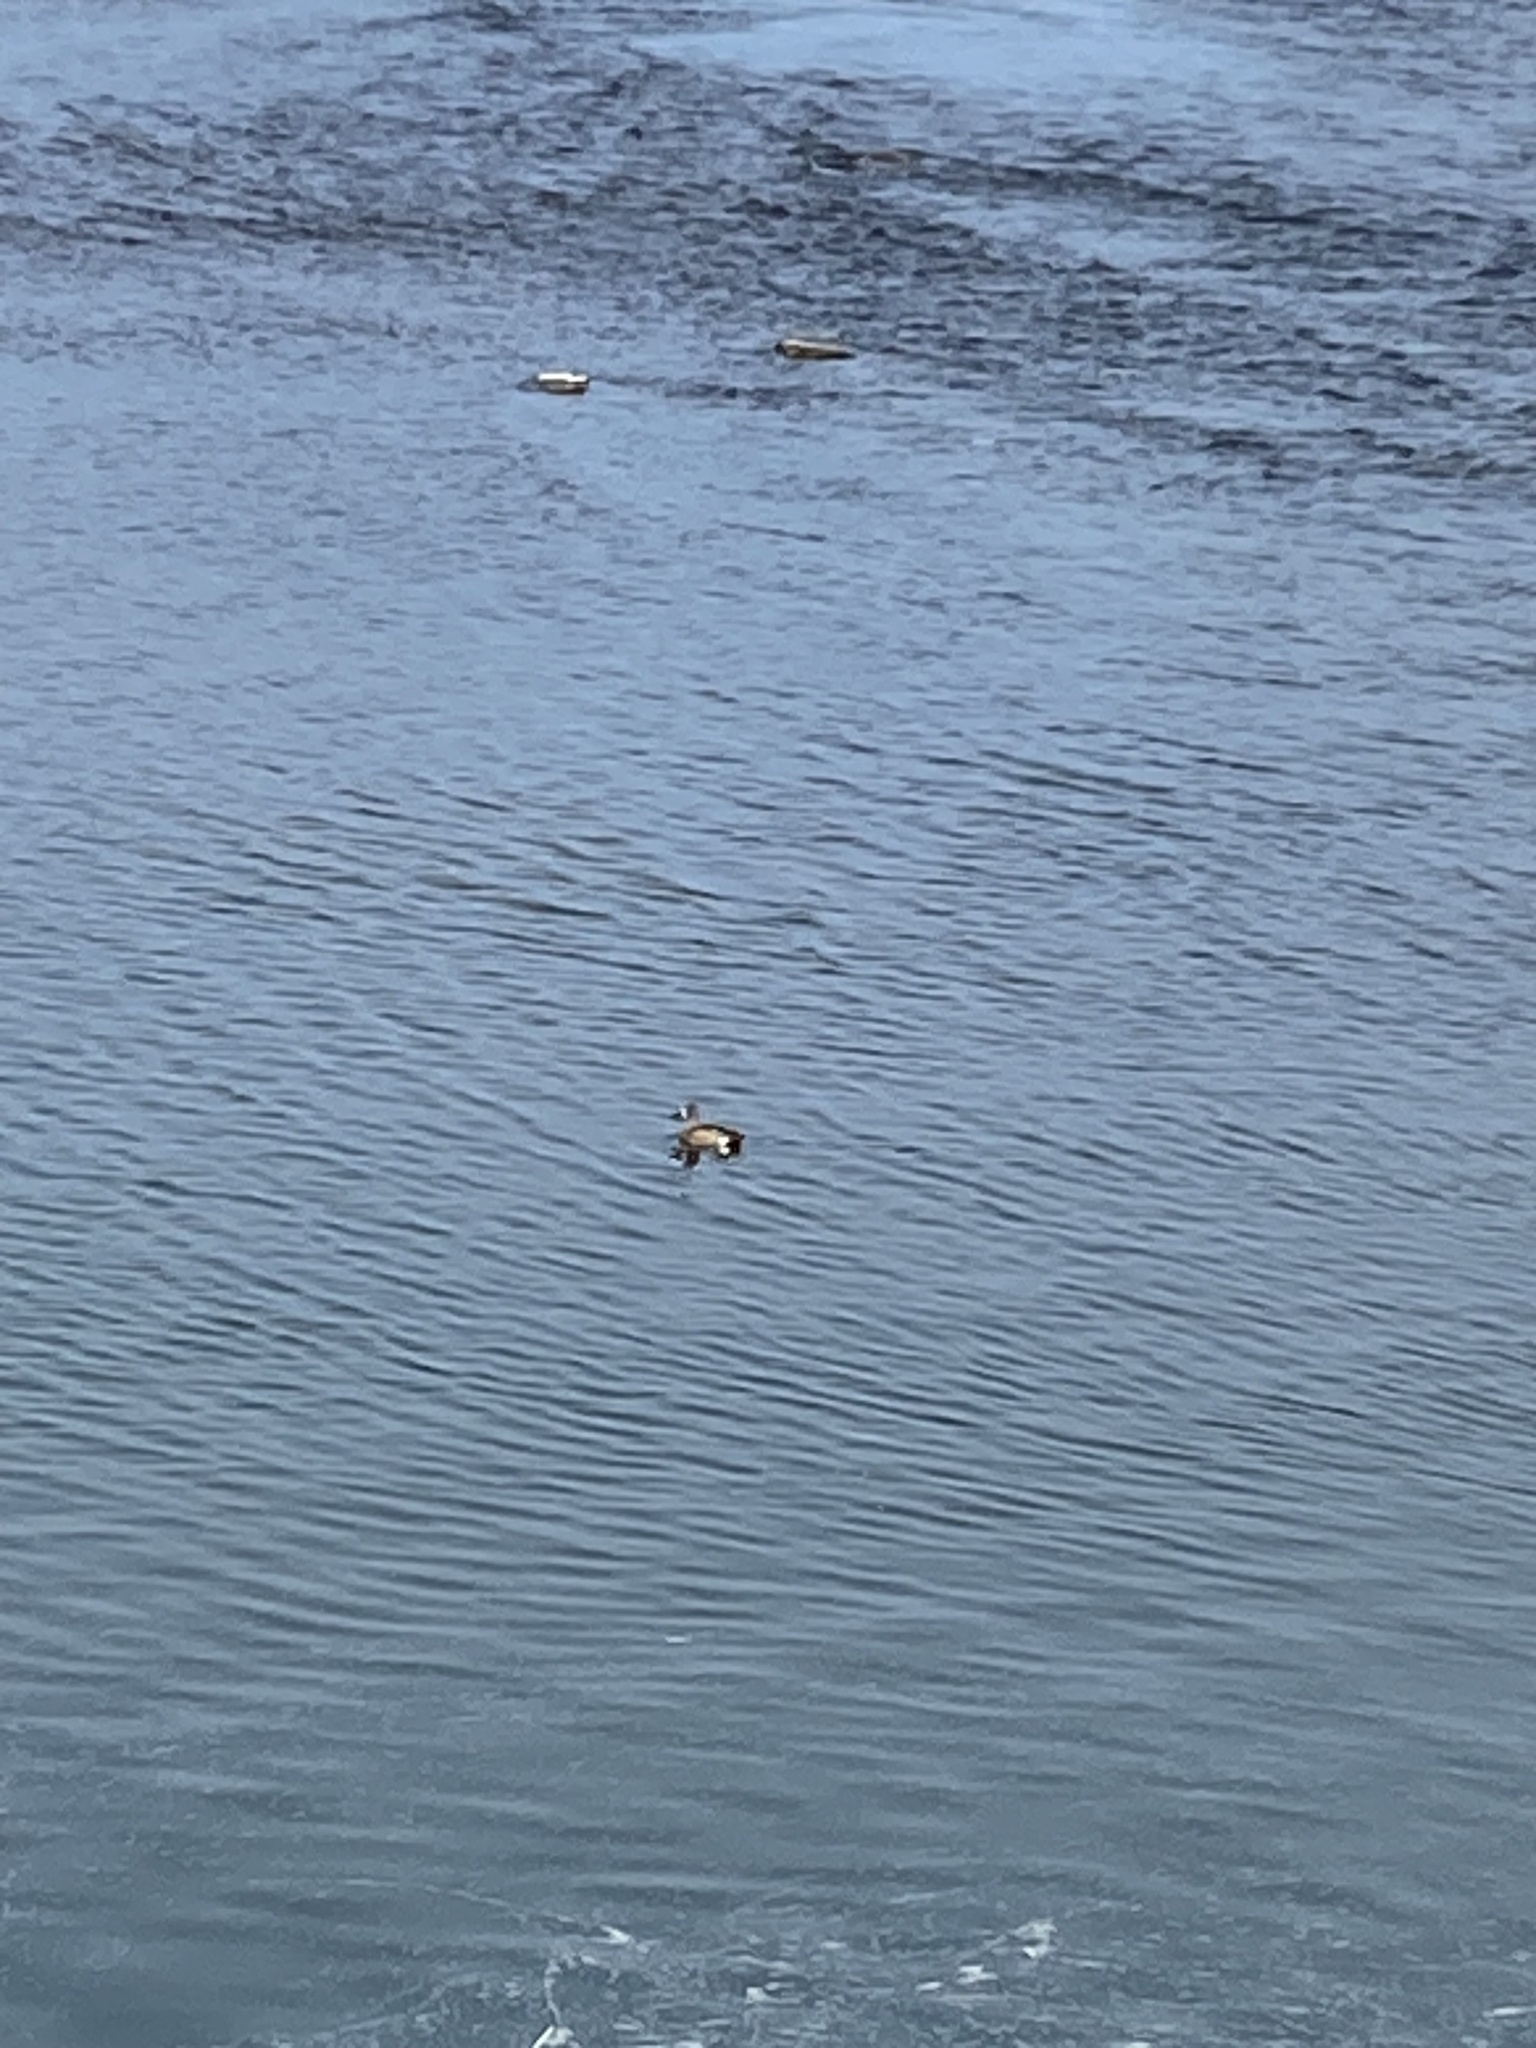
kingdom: Animalia
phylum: Chordata
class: Aves
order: Anseriformes
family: Anatidae
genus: Spatula
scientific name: Spatula discors
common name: Blue-winged teal
